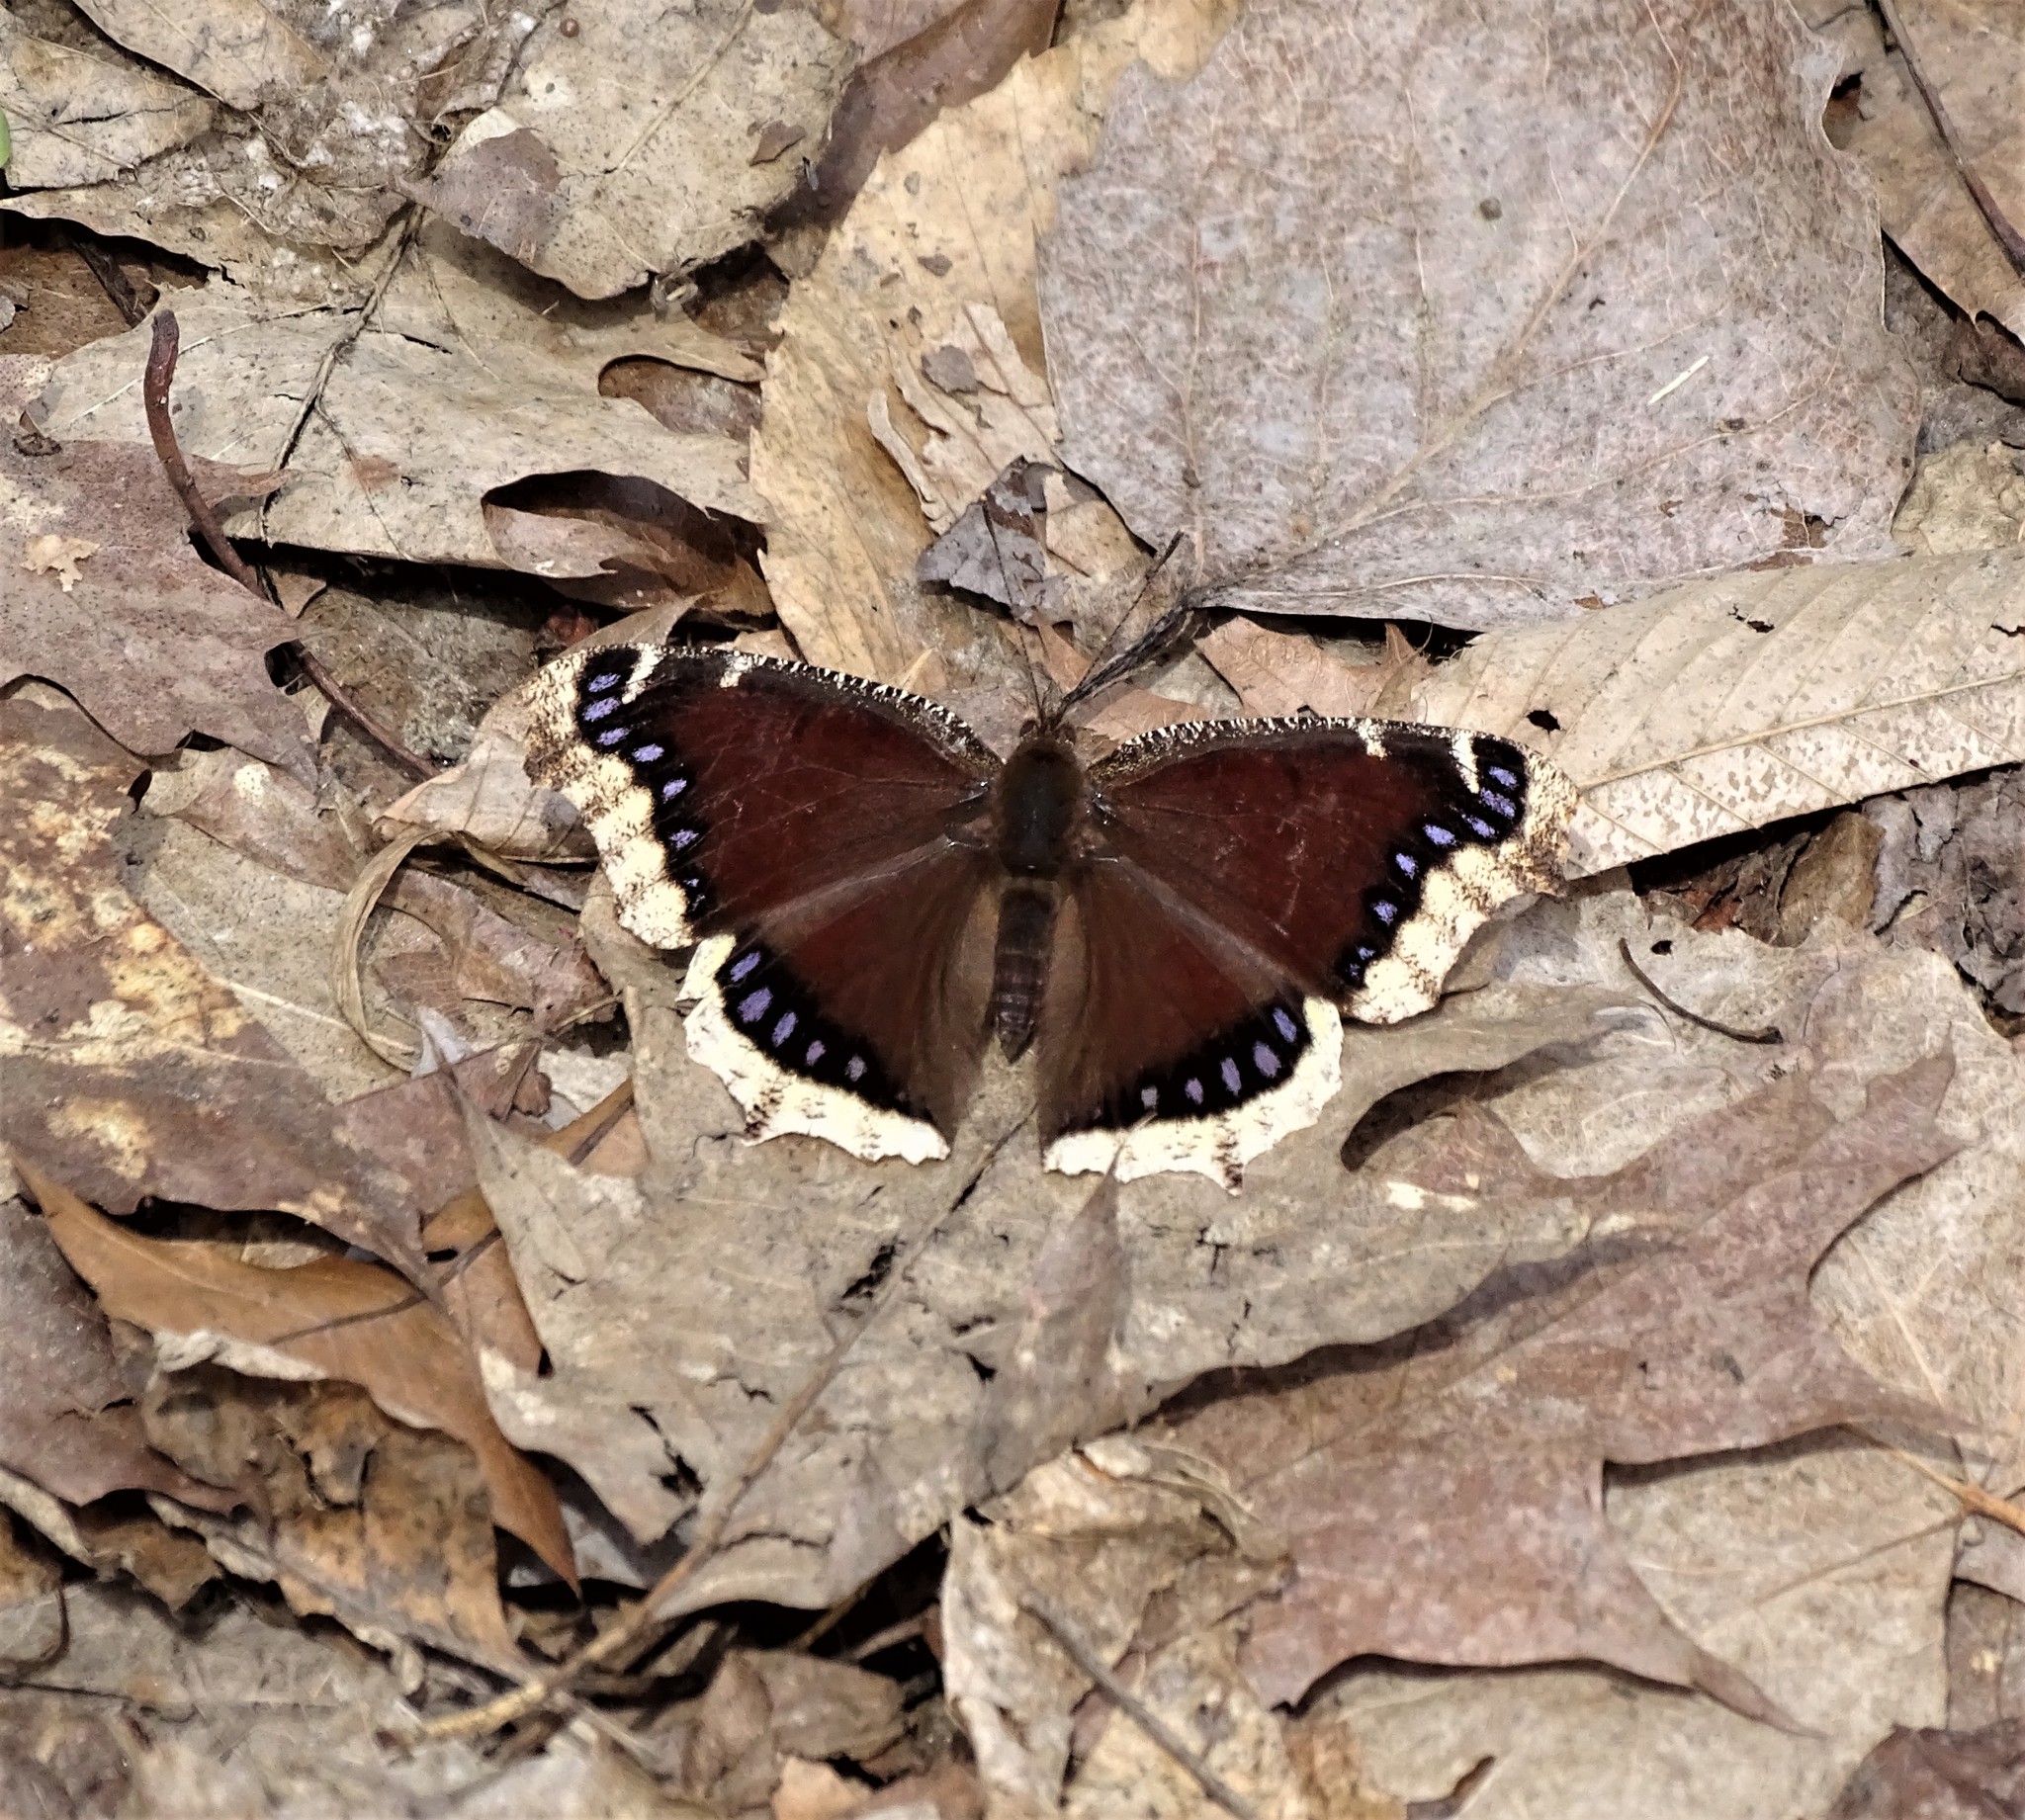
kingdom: Animalia
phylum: Arthropoda
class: Insecta
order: Lepidoptera
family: Nymphalidae
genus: Nymphalis
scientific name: Nymphalis antiopa
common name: Camberwell beauty
